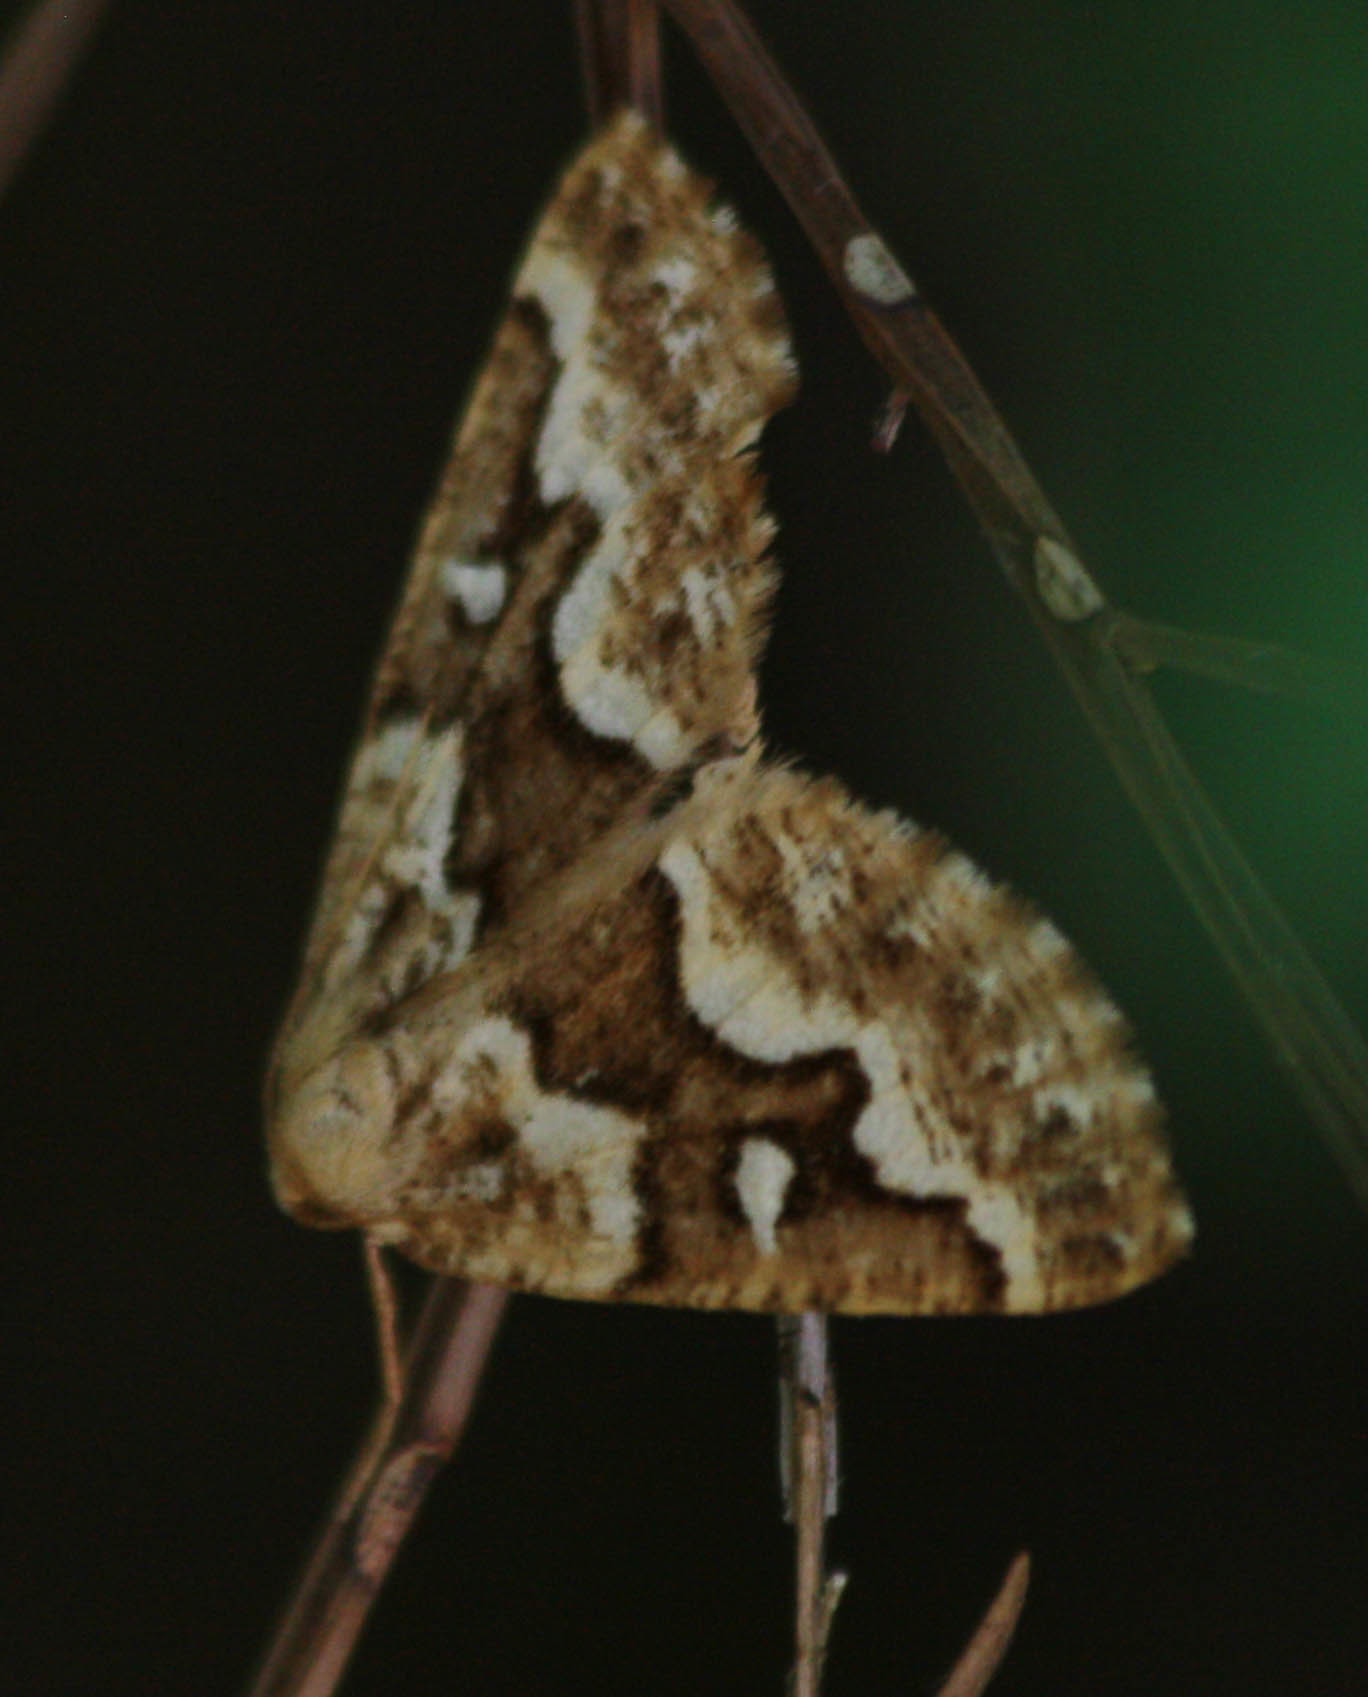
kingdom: Animalia
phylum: Arthropoda
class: Insecta
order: Lepidoptera
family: Geometridae
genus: Caripeta
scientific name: Caripeta divisata
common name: Gray spruce looper
